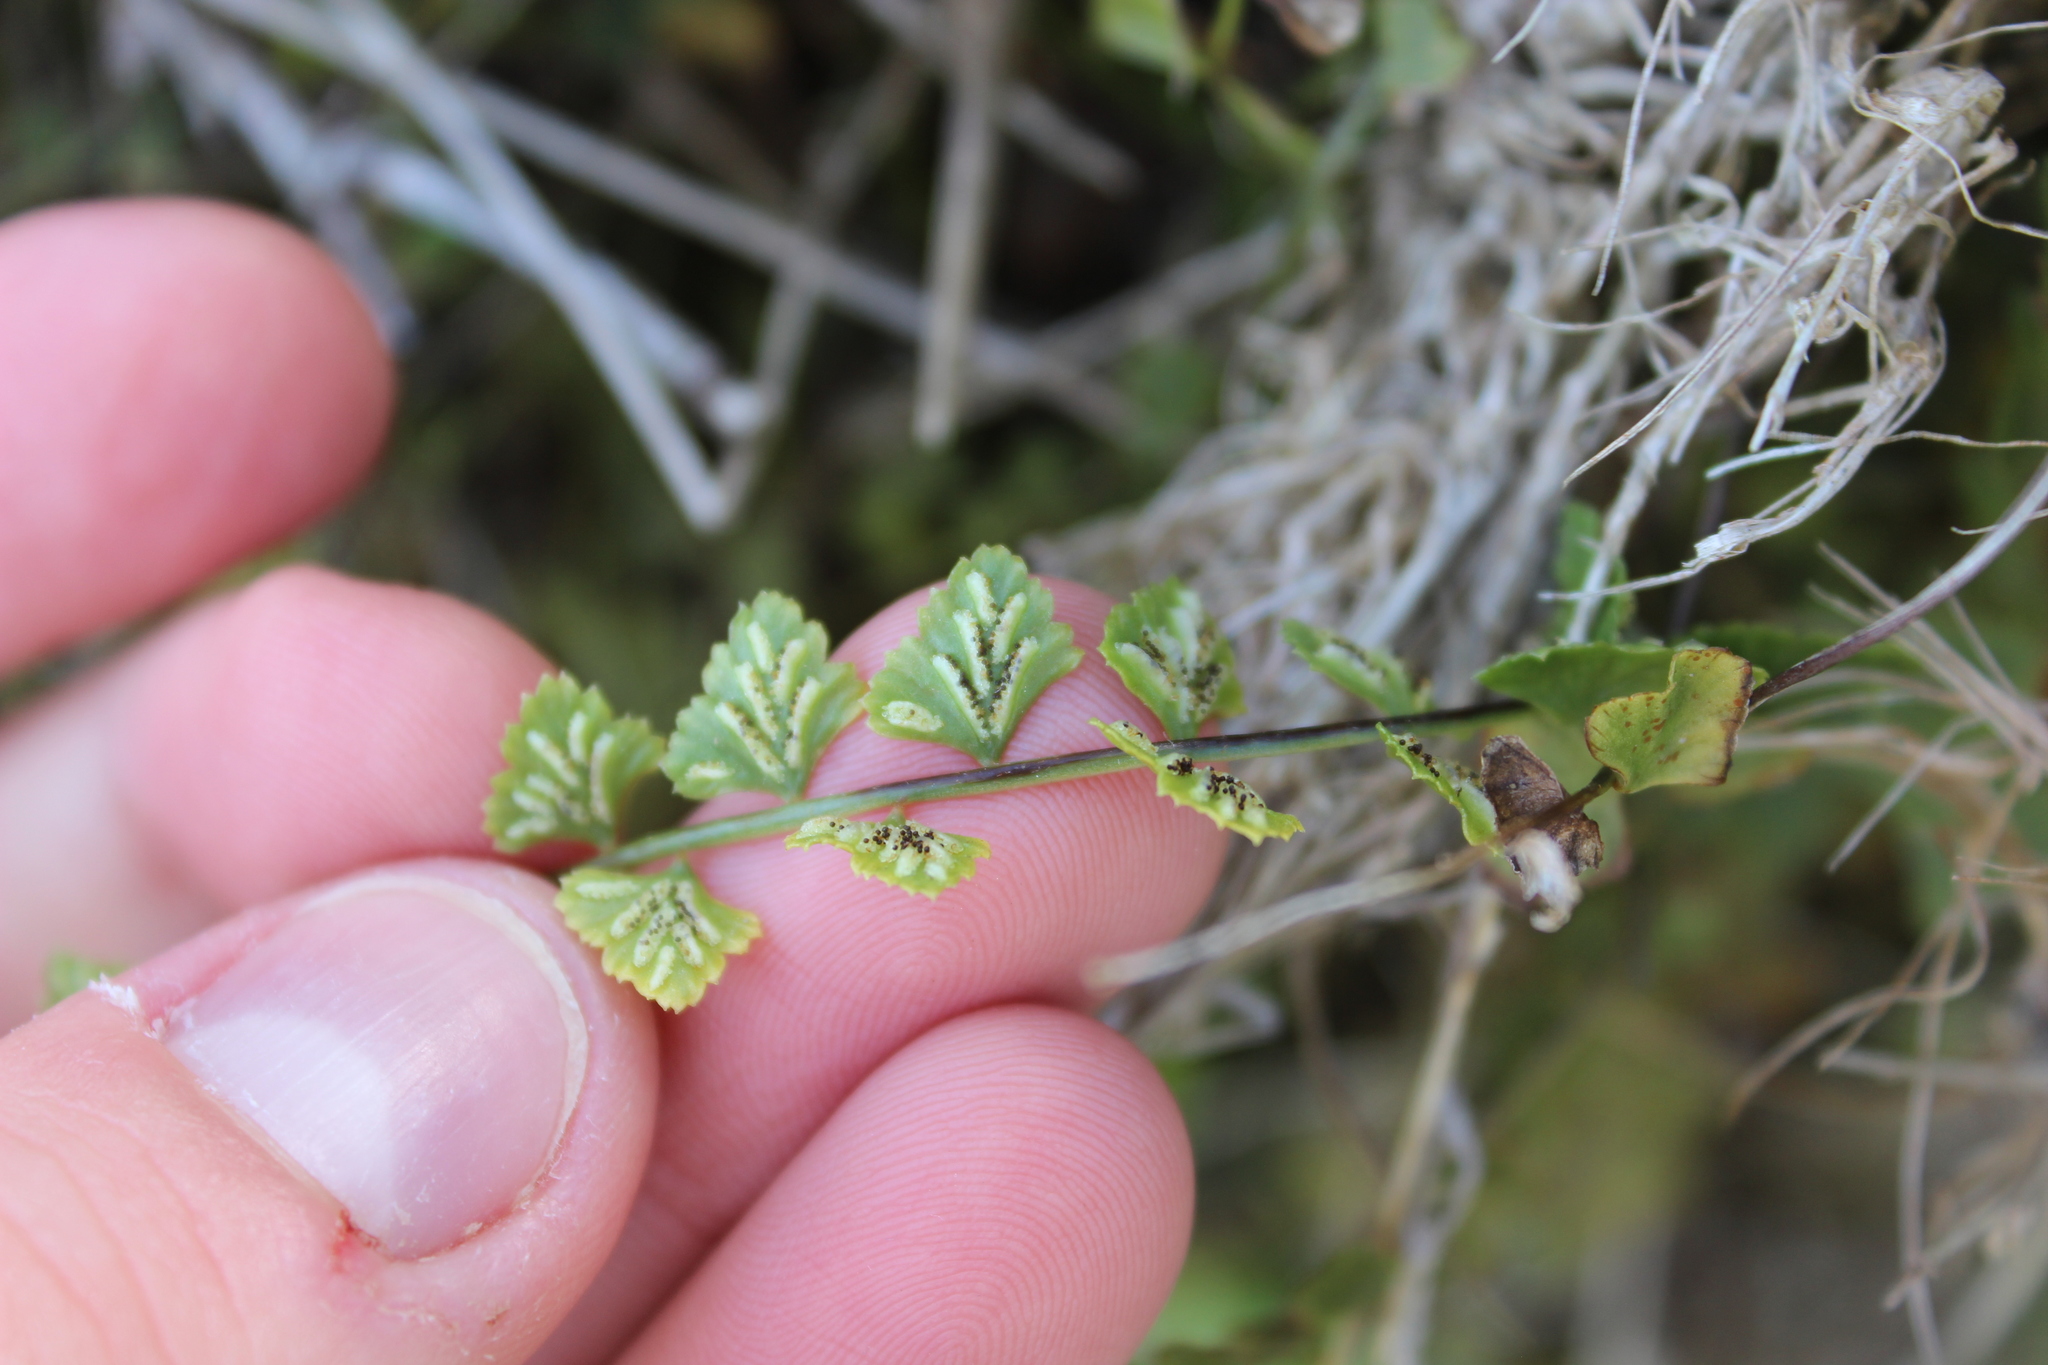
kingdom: Plantae
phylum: Tracheophyta
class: Polypodiopsida
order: Polypodiales
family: Aspleniaceae
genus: Asplenium
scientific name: Asplenium flabellifolium
